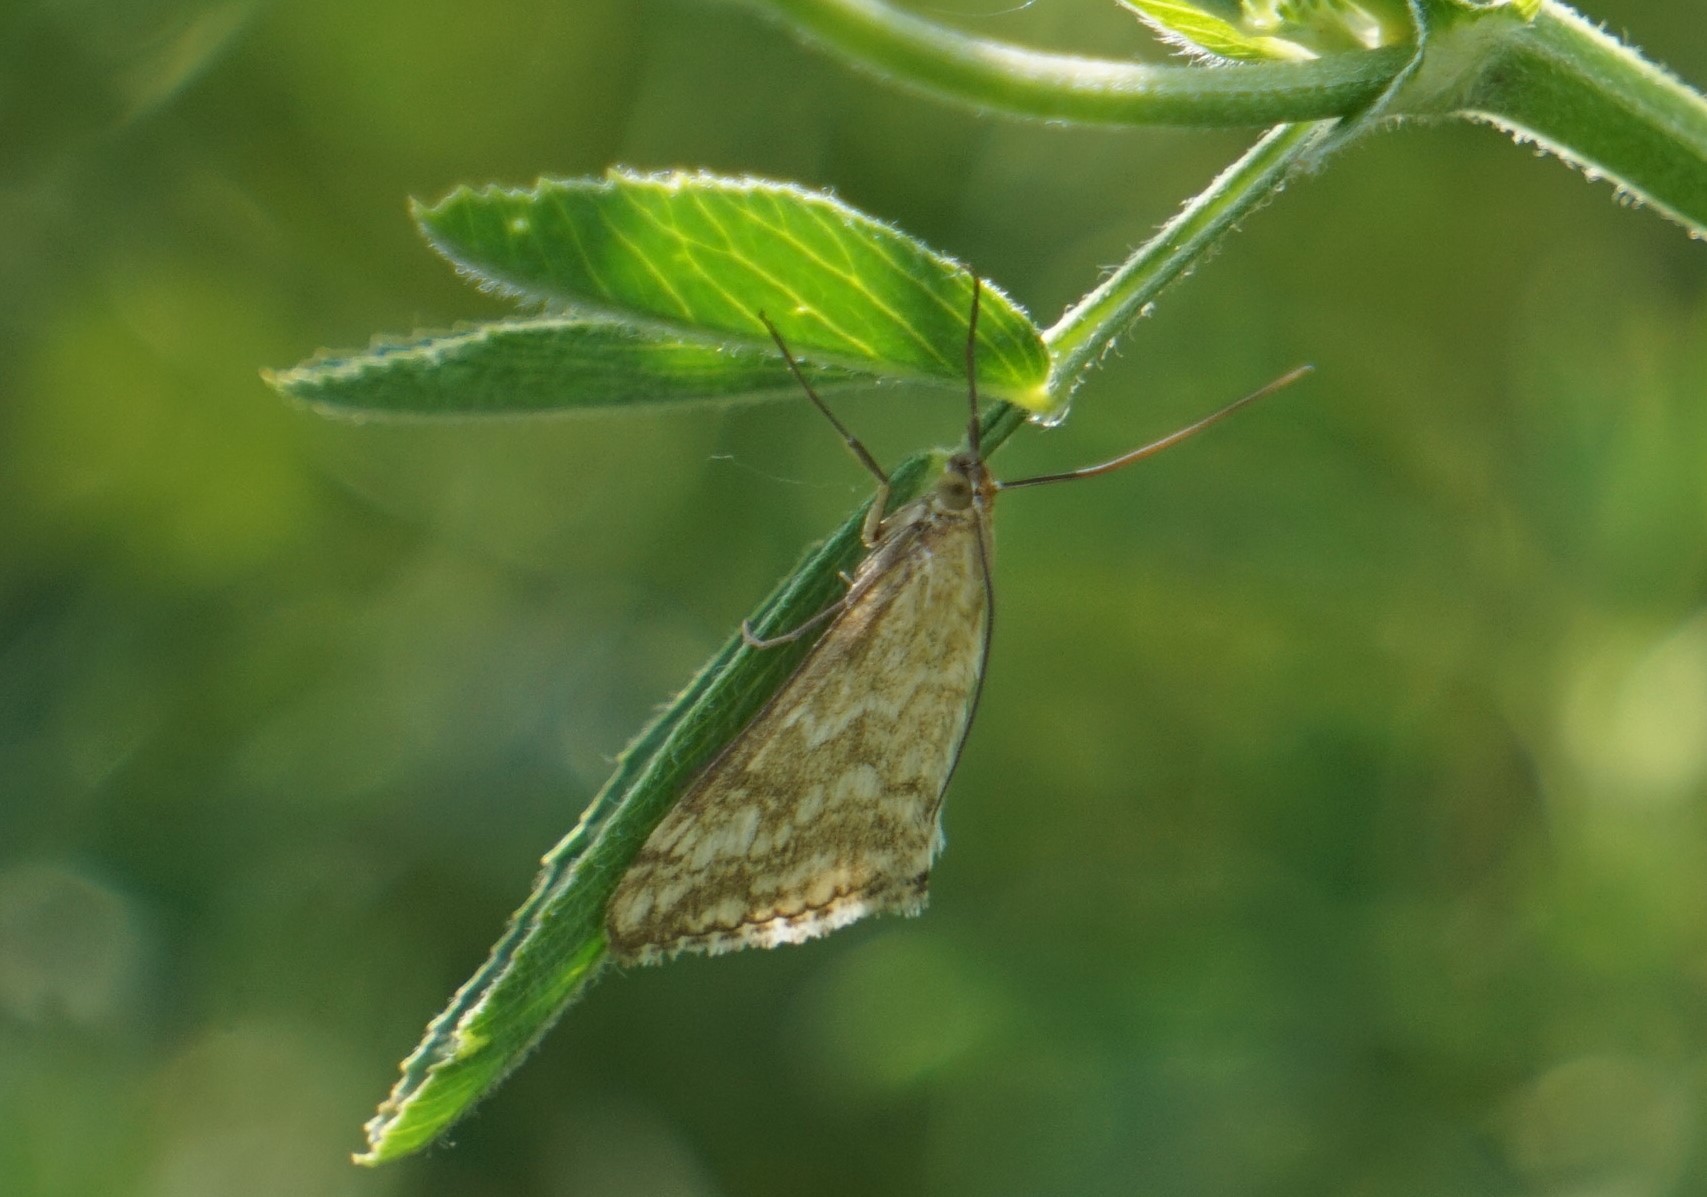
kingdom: Animalia
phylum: Arthropoda
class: Insecta
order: Lepidoptera
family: Crambidae
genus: Evergestis
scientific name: Evergestis frumentalis
